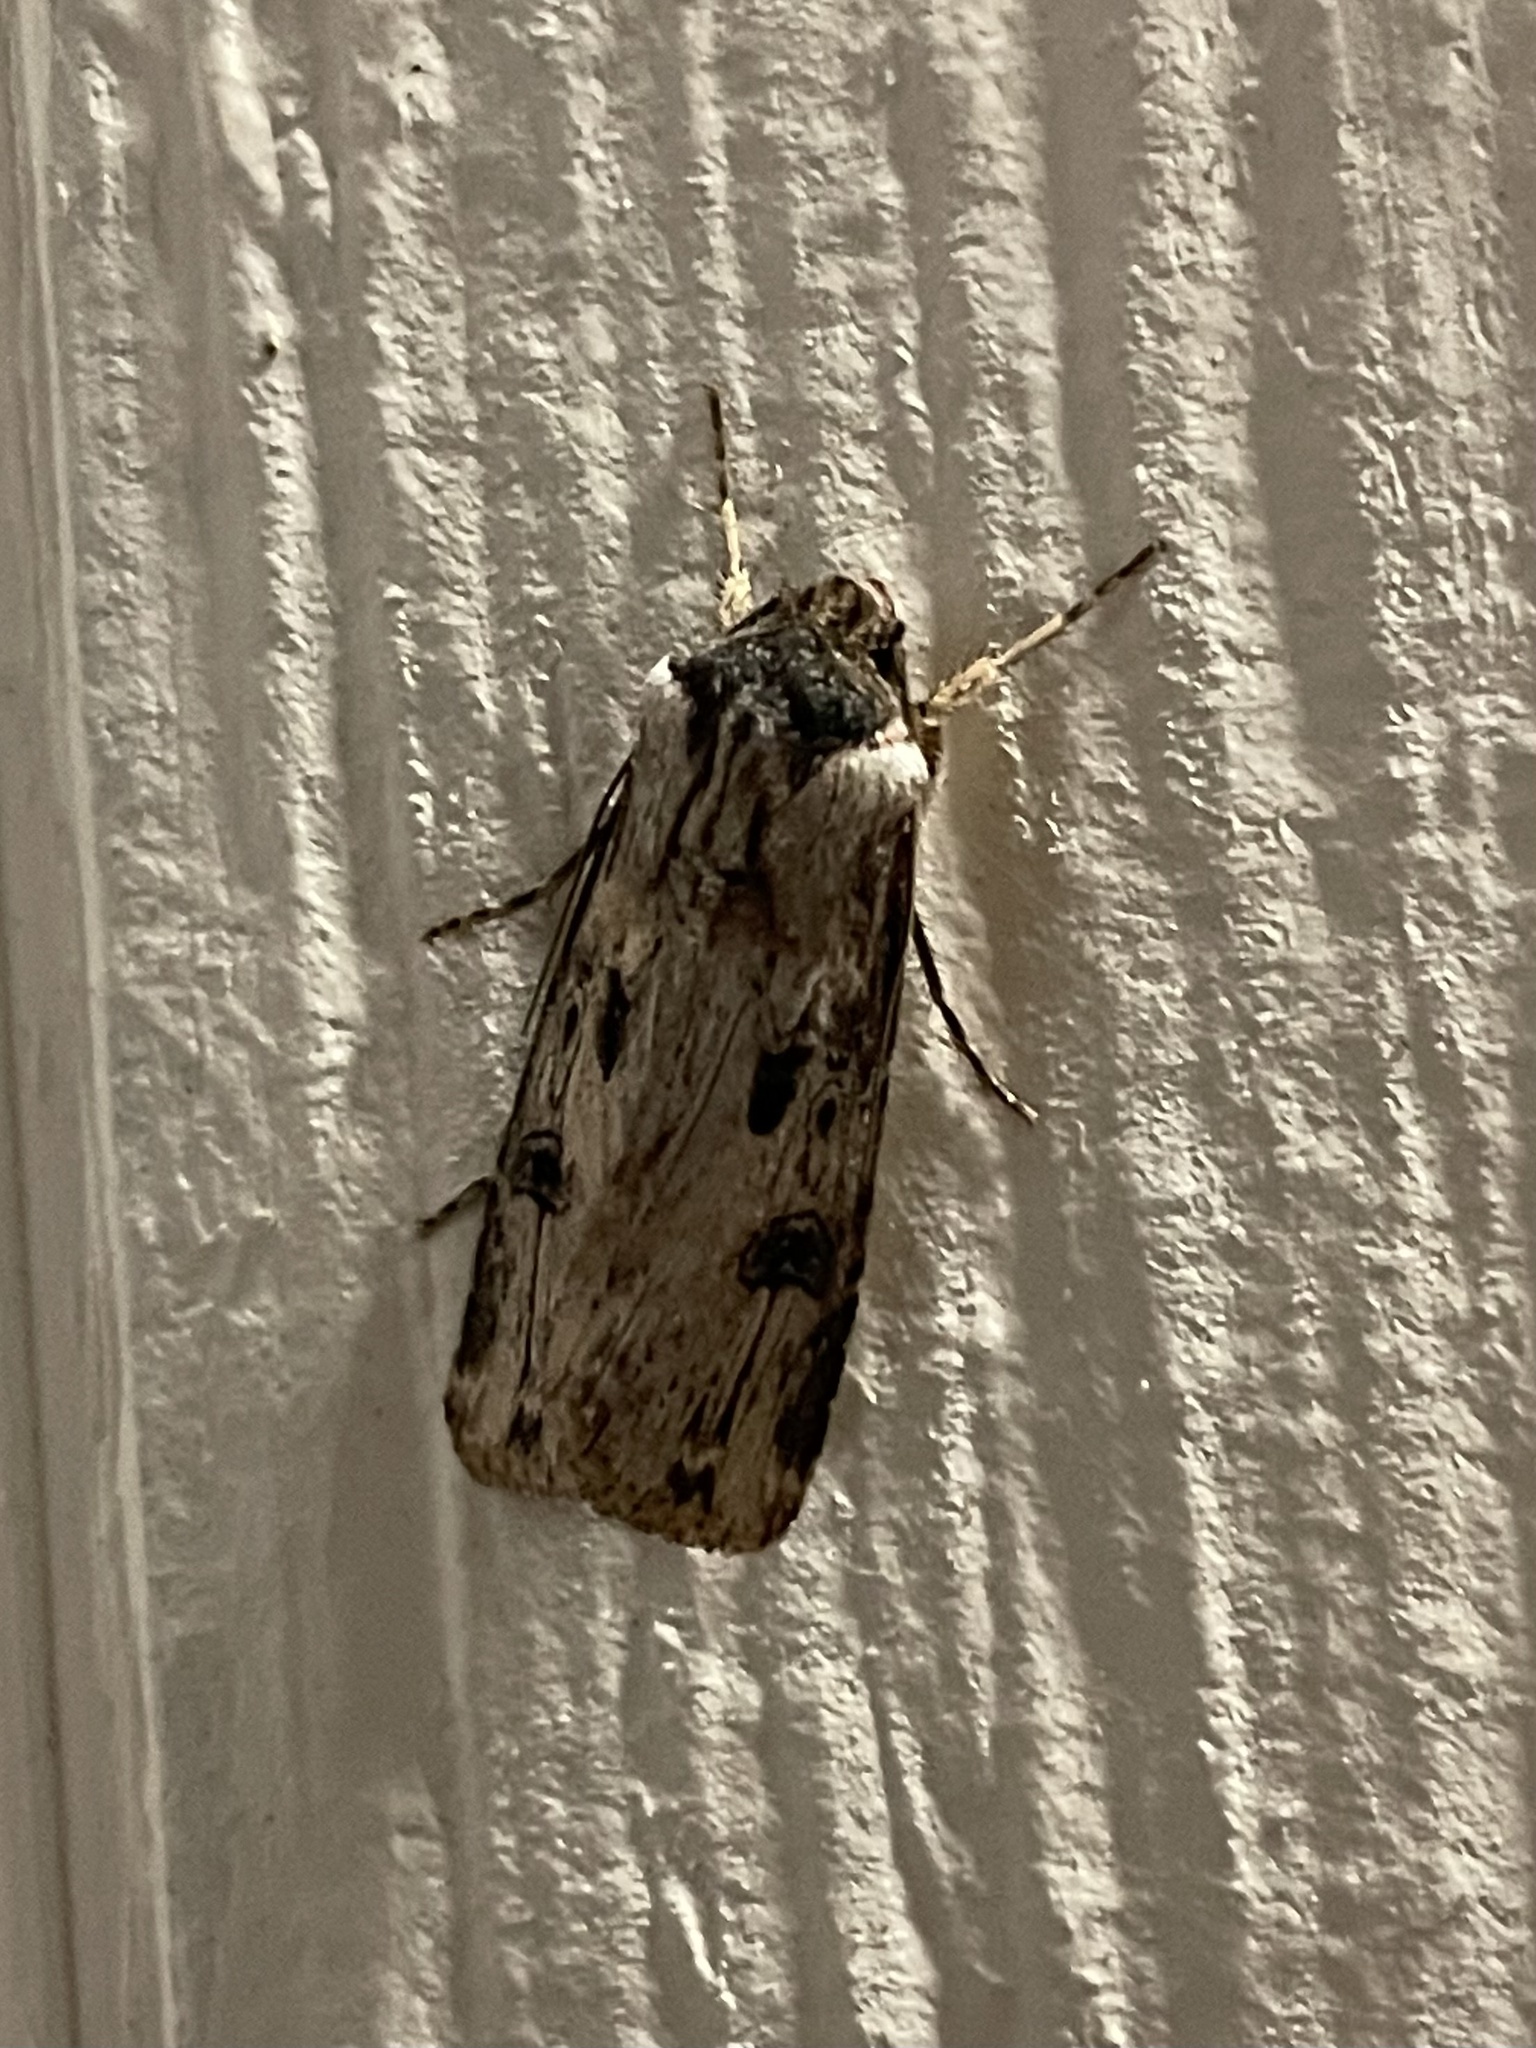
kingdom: Animalia
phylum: Arthropoda
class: Insecta
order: Lepidoptera
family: Noctuidae
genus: Agrotis
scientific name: Agrotis malefida
